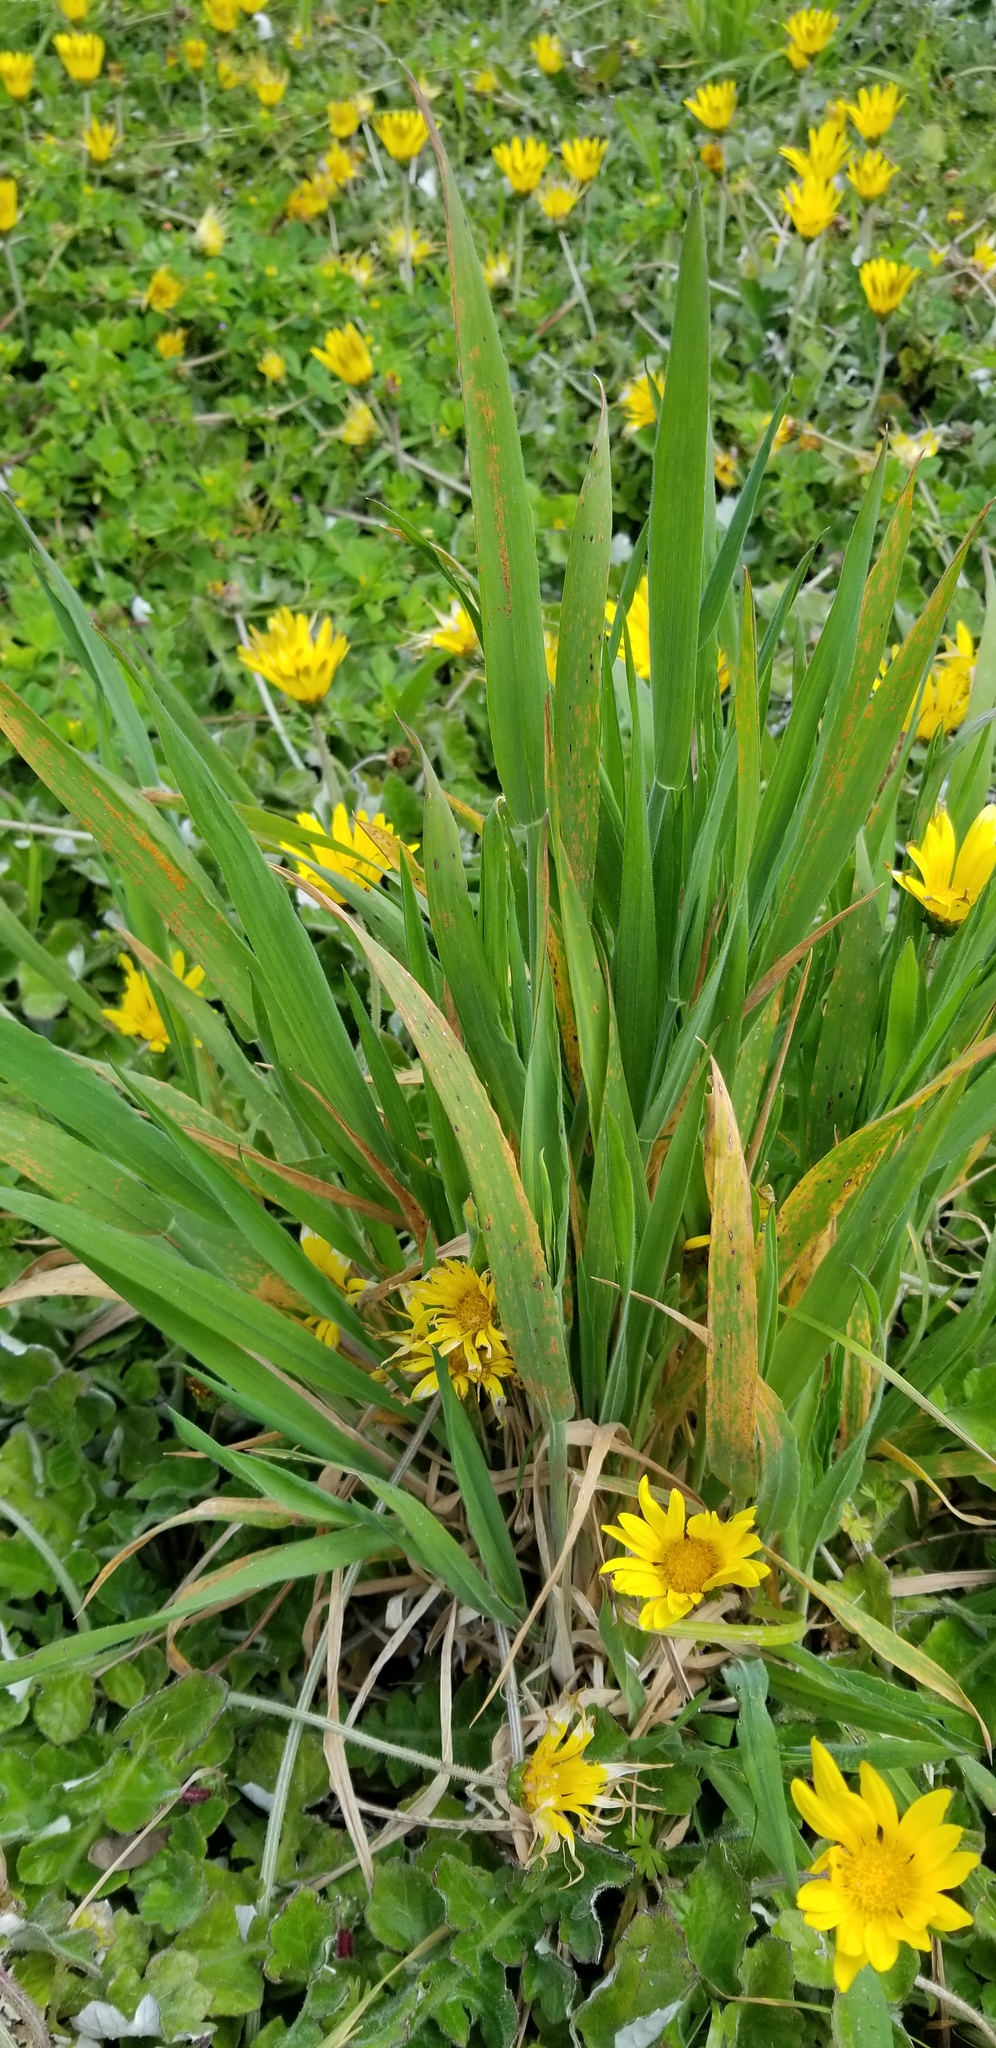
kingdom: Plantae
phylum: Tracheophyta
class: Liliopsida
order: Poales
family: Poaceae
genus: Holcus
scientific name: Holcus lanatus
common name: Yorkshire-fog
